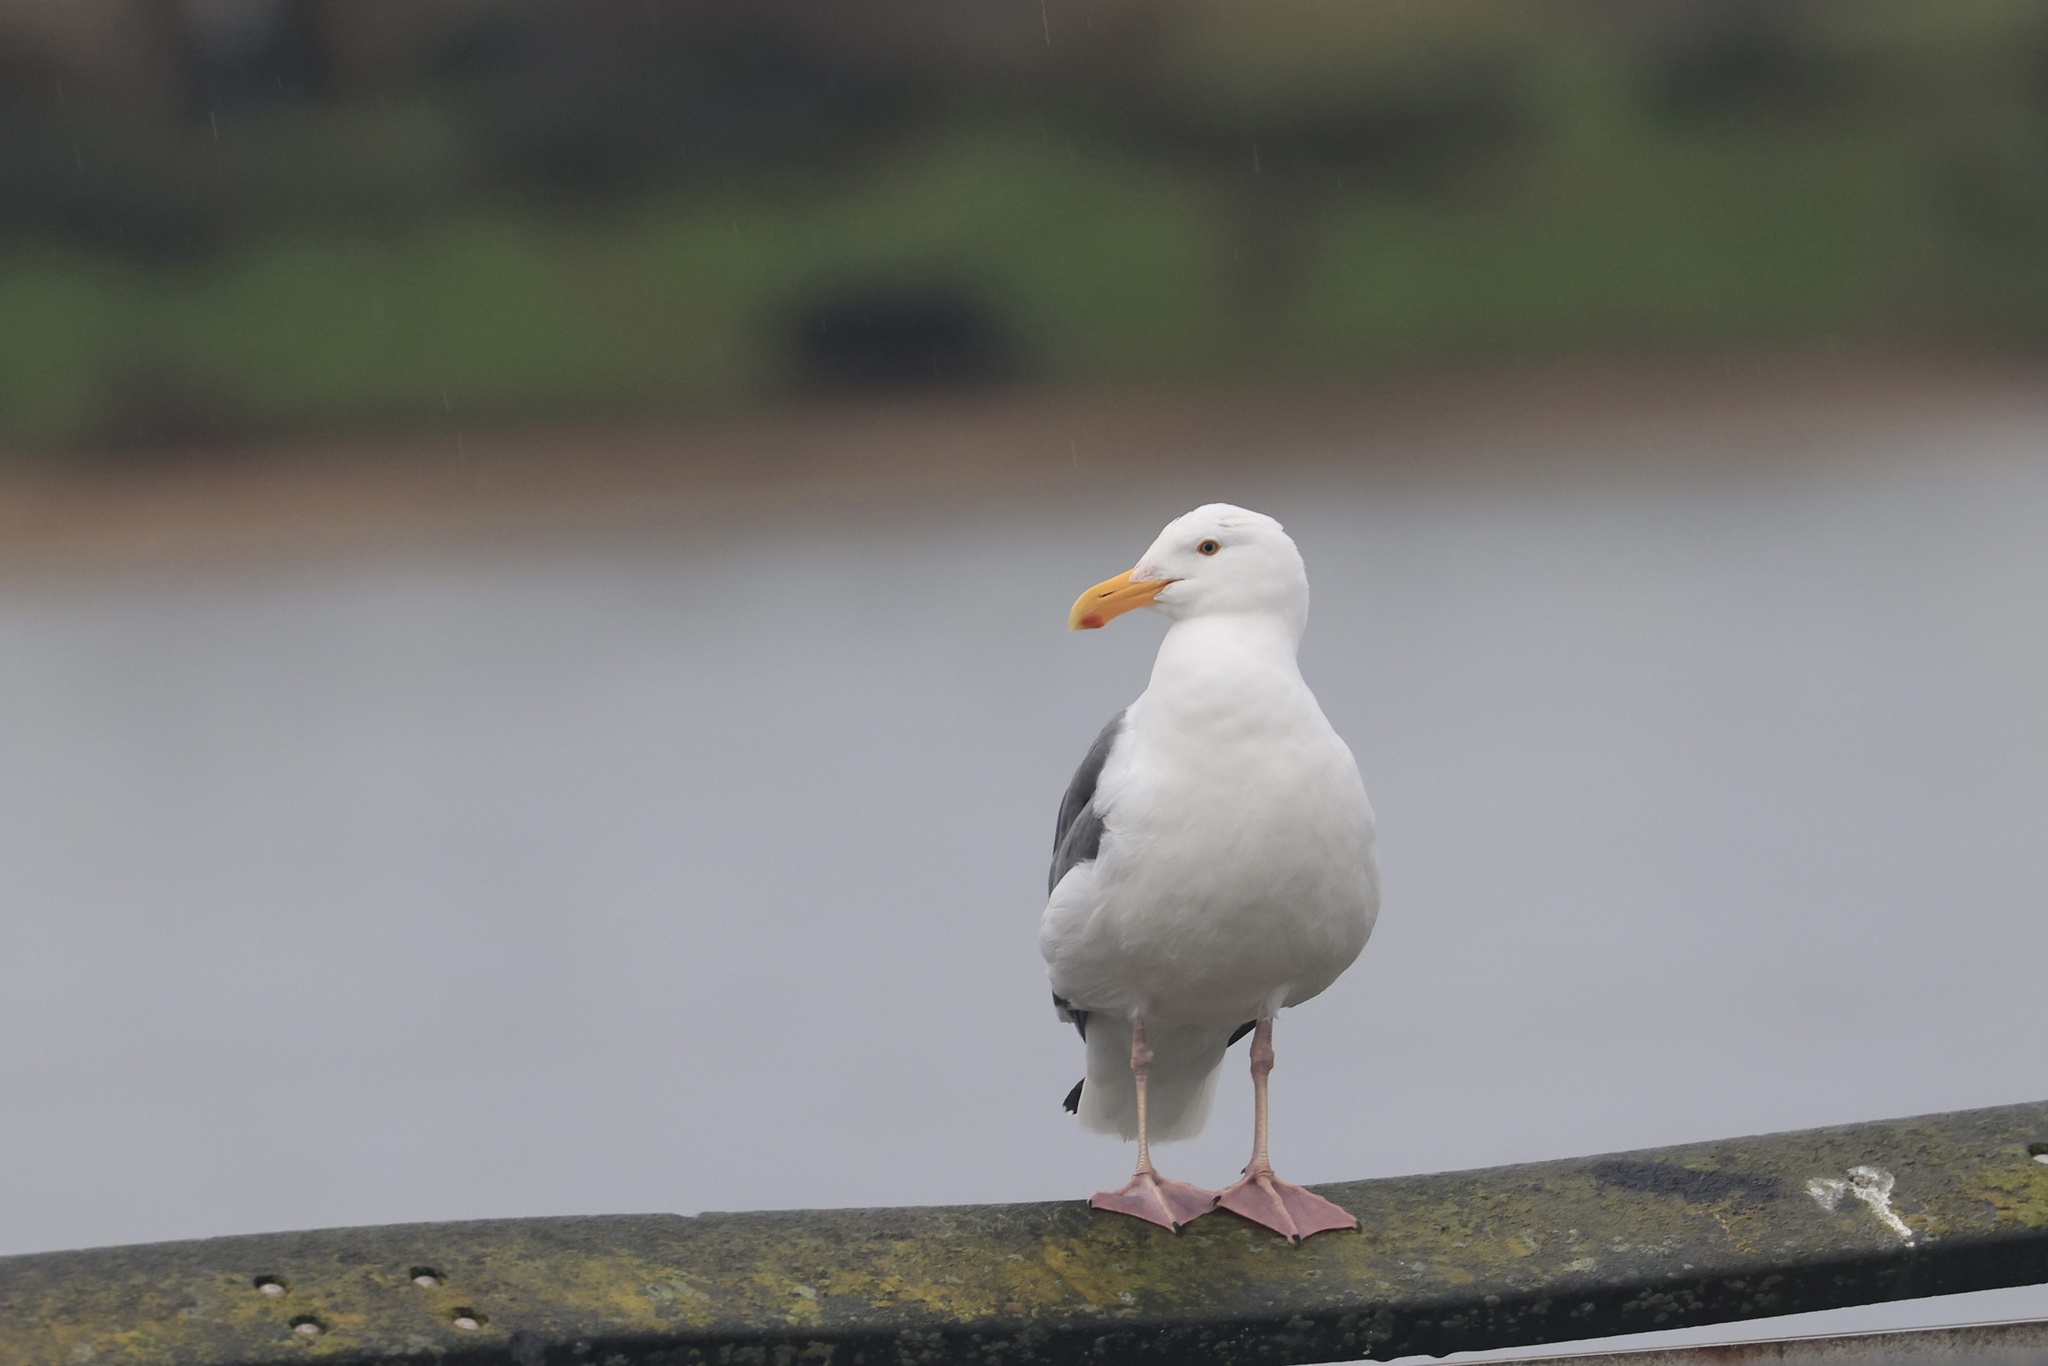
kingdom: Animalia
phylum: Chordata
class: Aves
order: Charadriiformes
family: Laridae
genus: Larus
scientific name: Larus occidentalis
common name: Western gull
